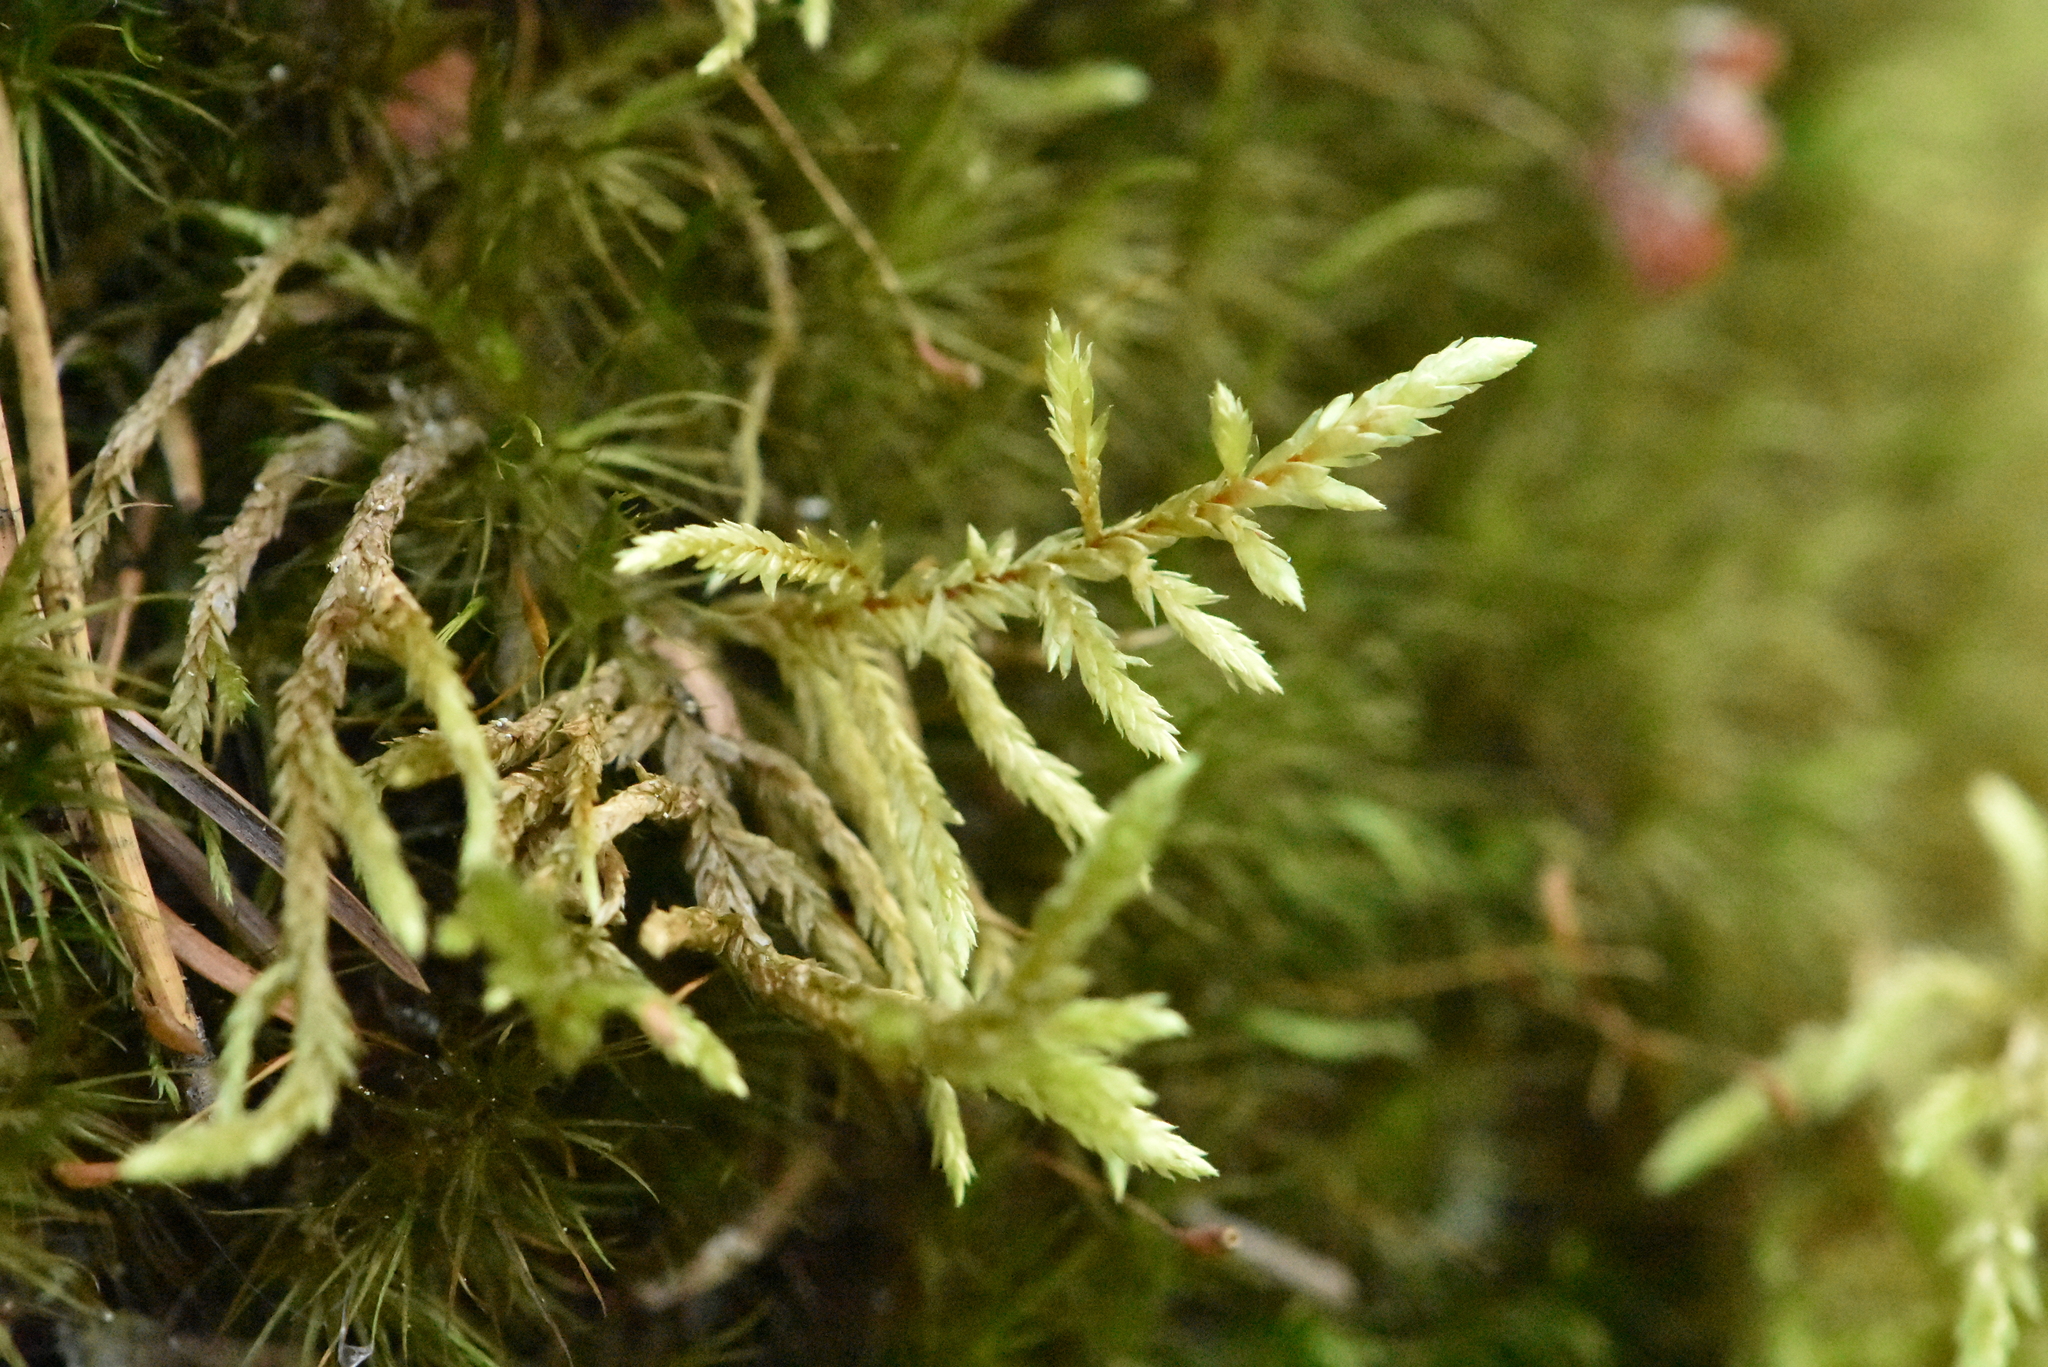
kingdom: Plantae
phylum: Bryophyta
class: Bryopsida
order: Hypnales
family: Hylocomiaceae
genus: Pleurozium
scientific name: Pleurozium schreberi
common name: Red-stemmed feather moss
